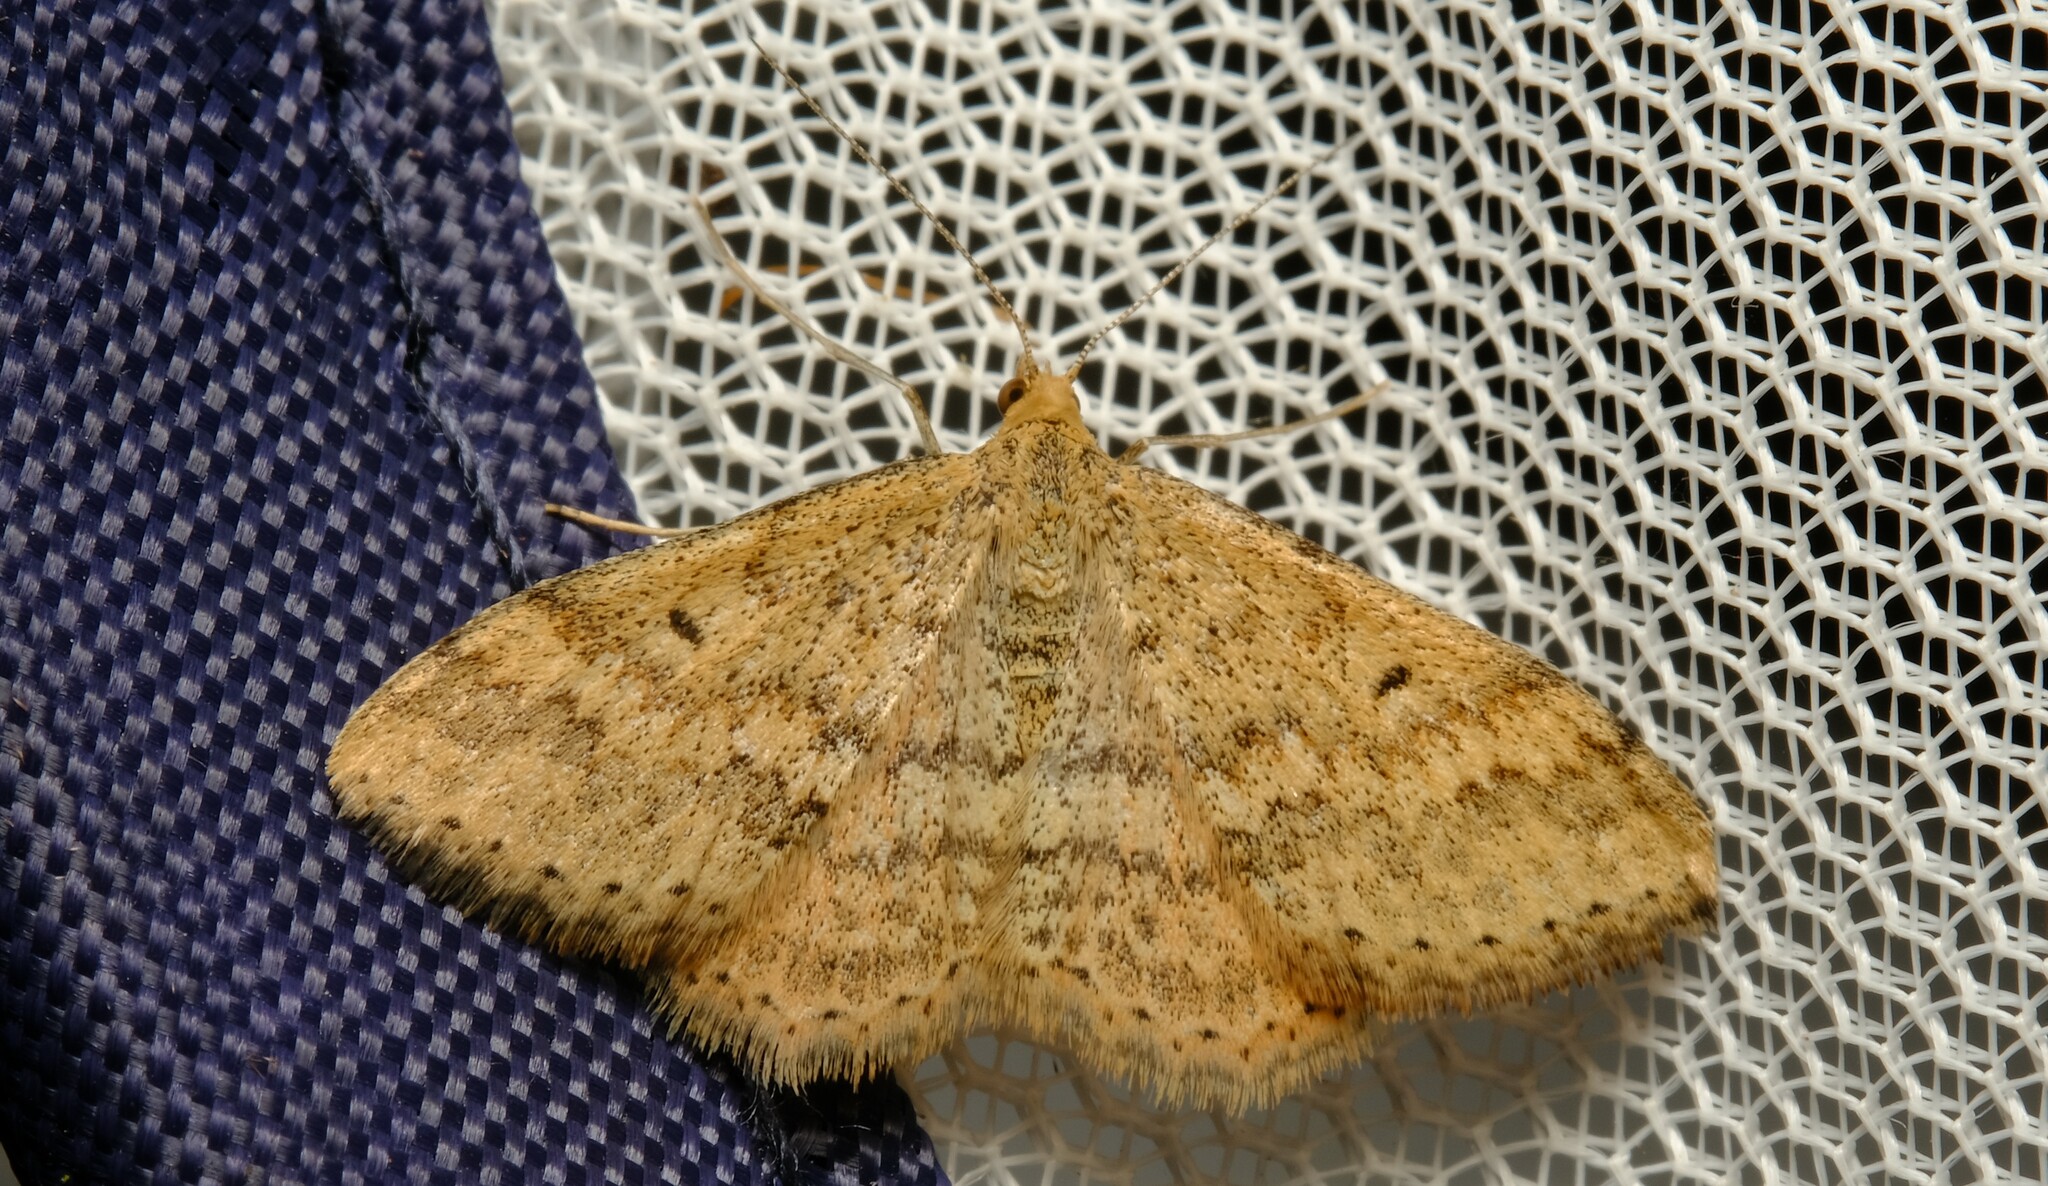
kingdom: Animalia
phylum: Arthropoda
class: Insecta
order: Lepidoptera
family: Geometridae
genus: Scopula
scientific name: Scopula rubraria
